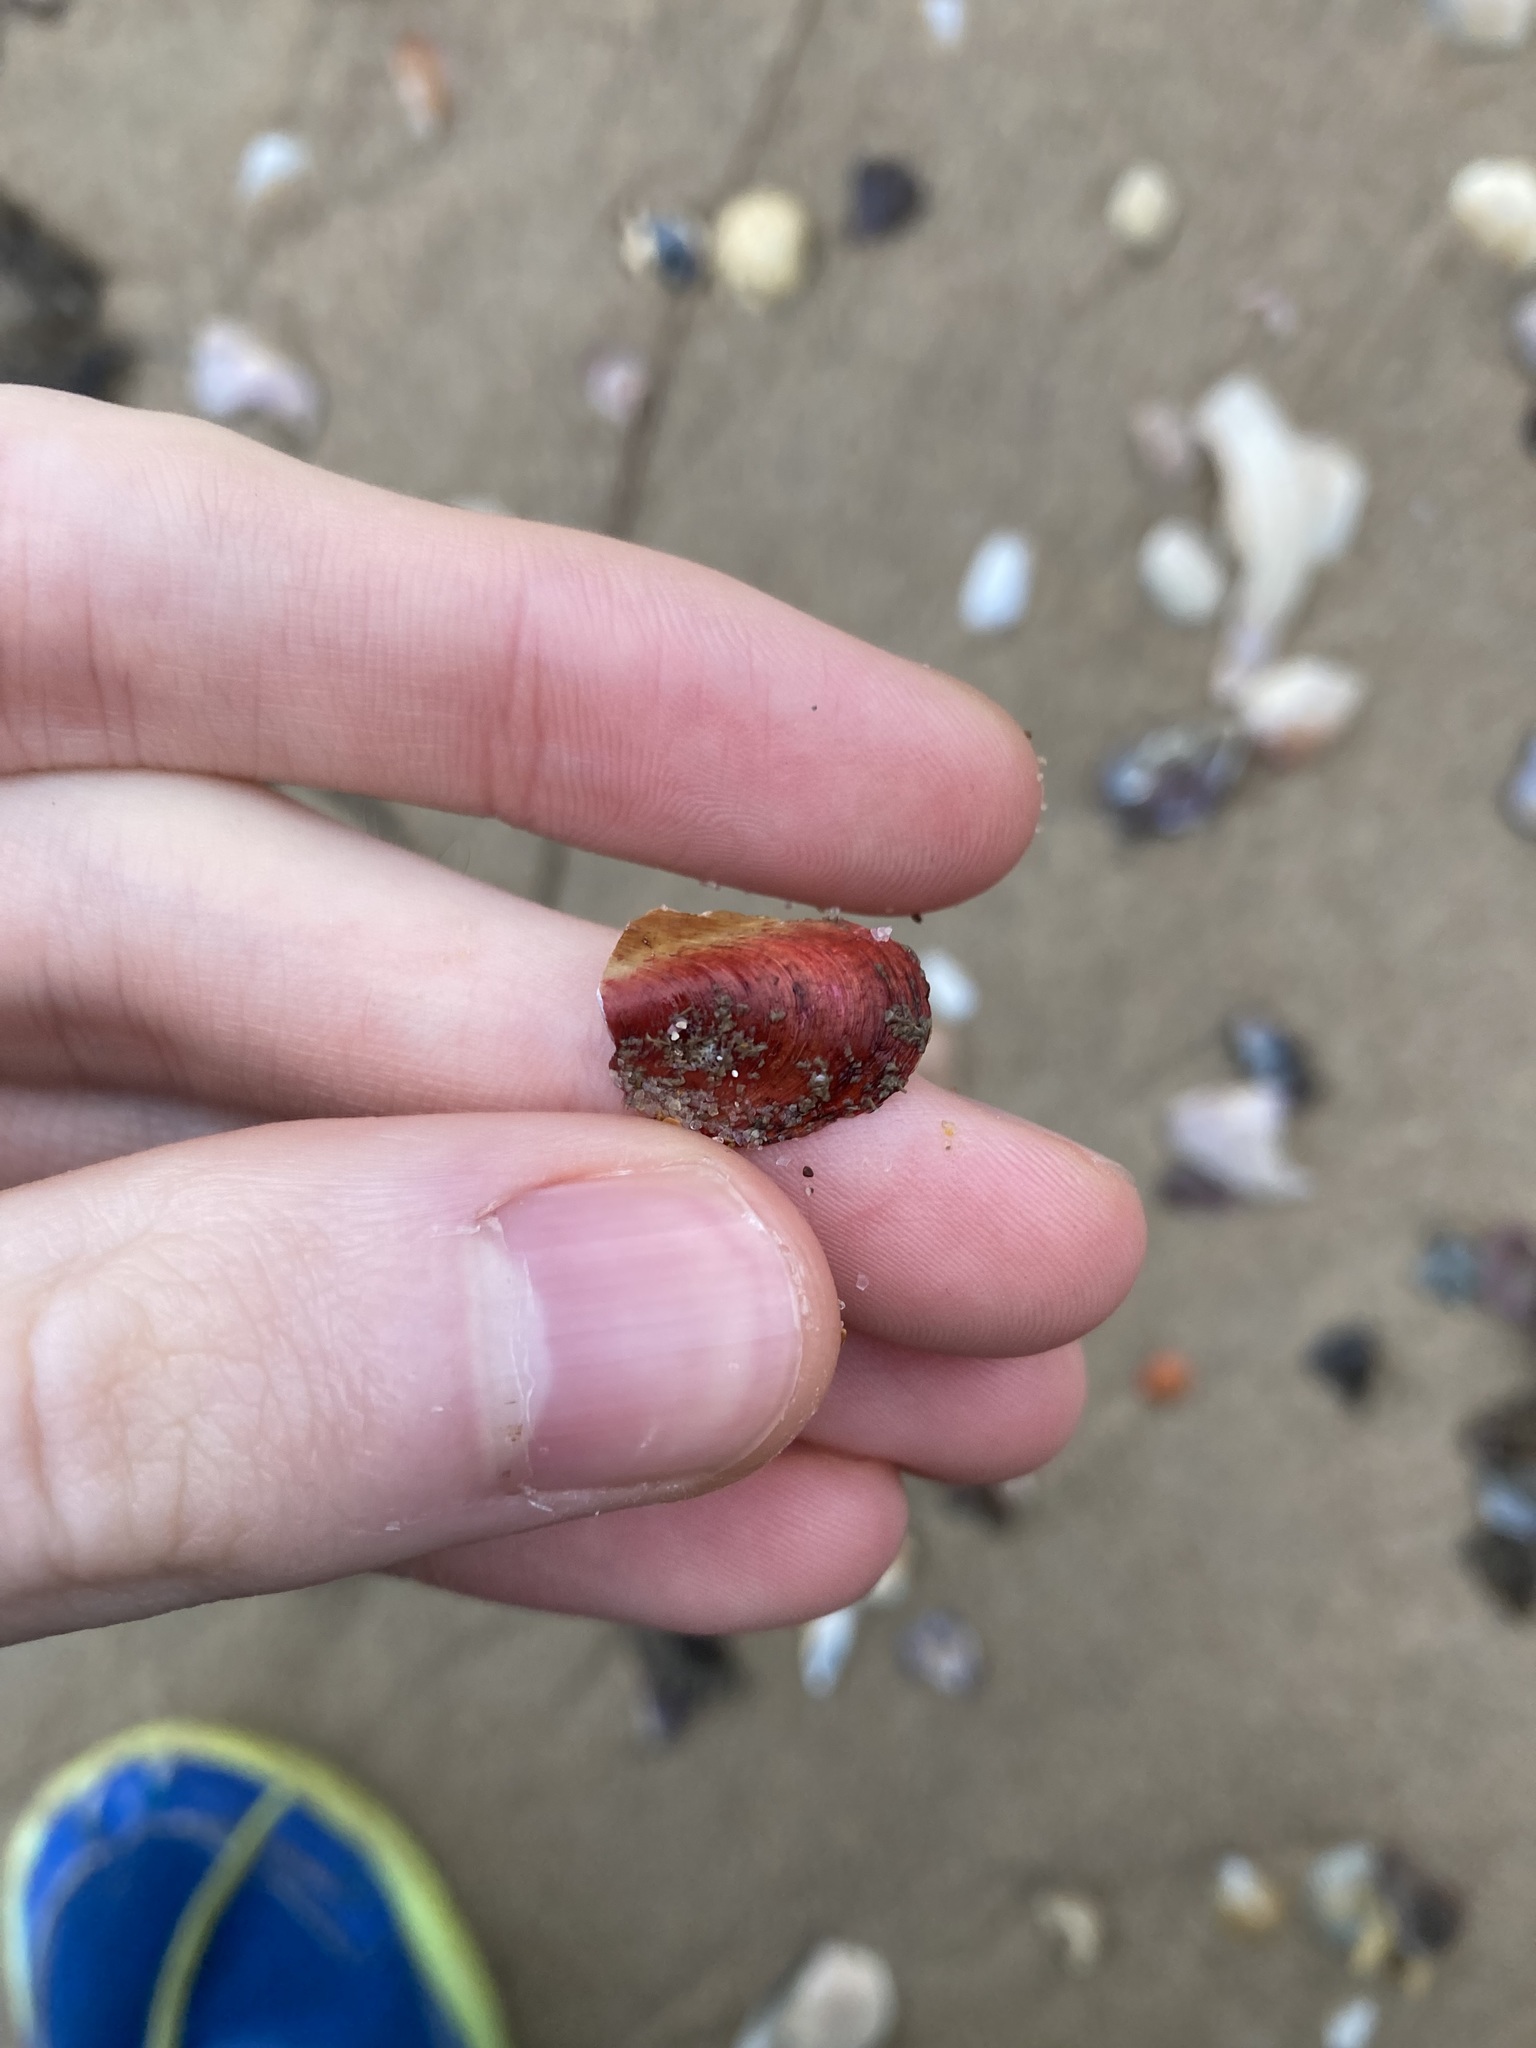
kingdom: Animalia
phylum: Mollusca
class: Bivalvia
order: Mytilida
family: Mytilidae
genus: Modiolus
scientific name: Modiolus areolatus
